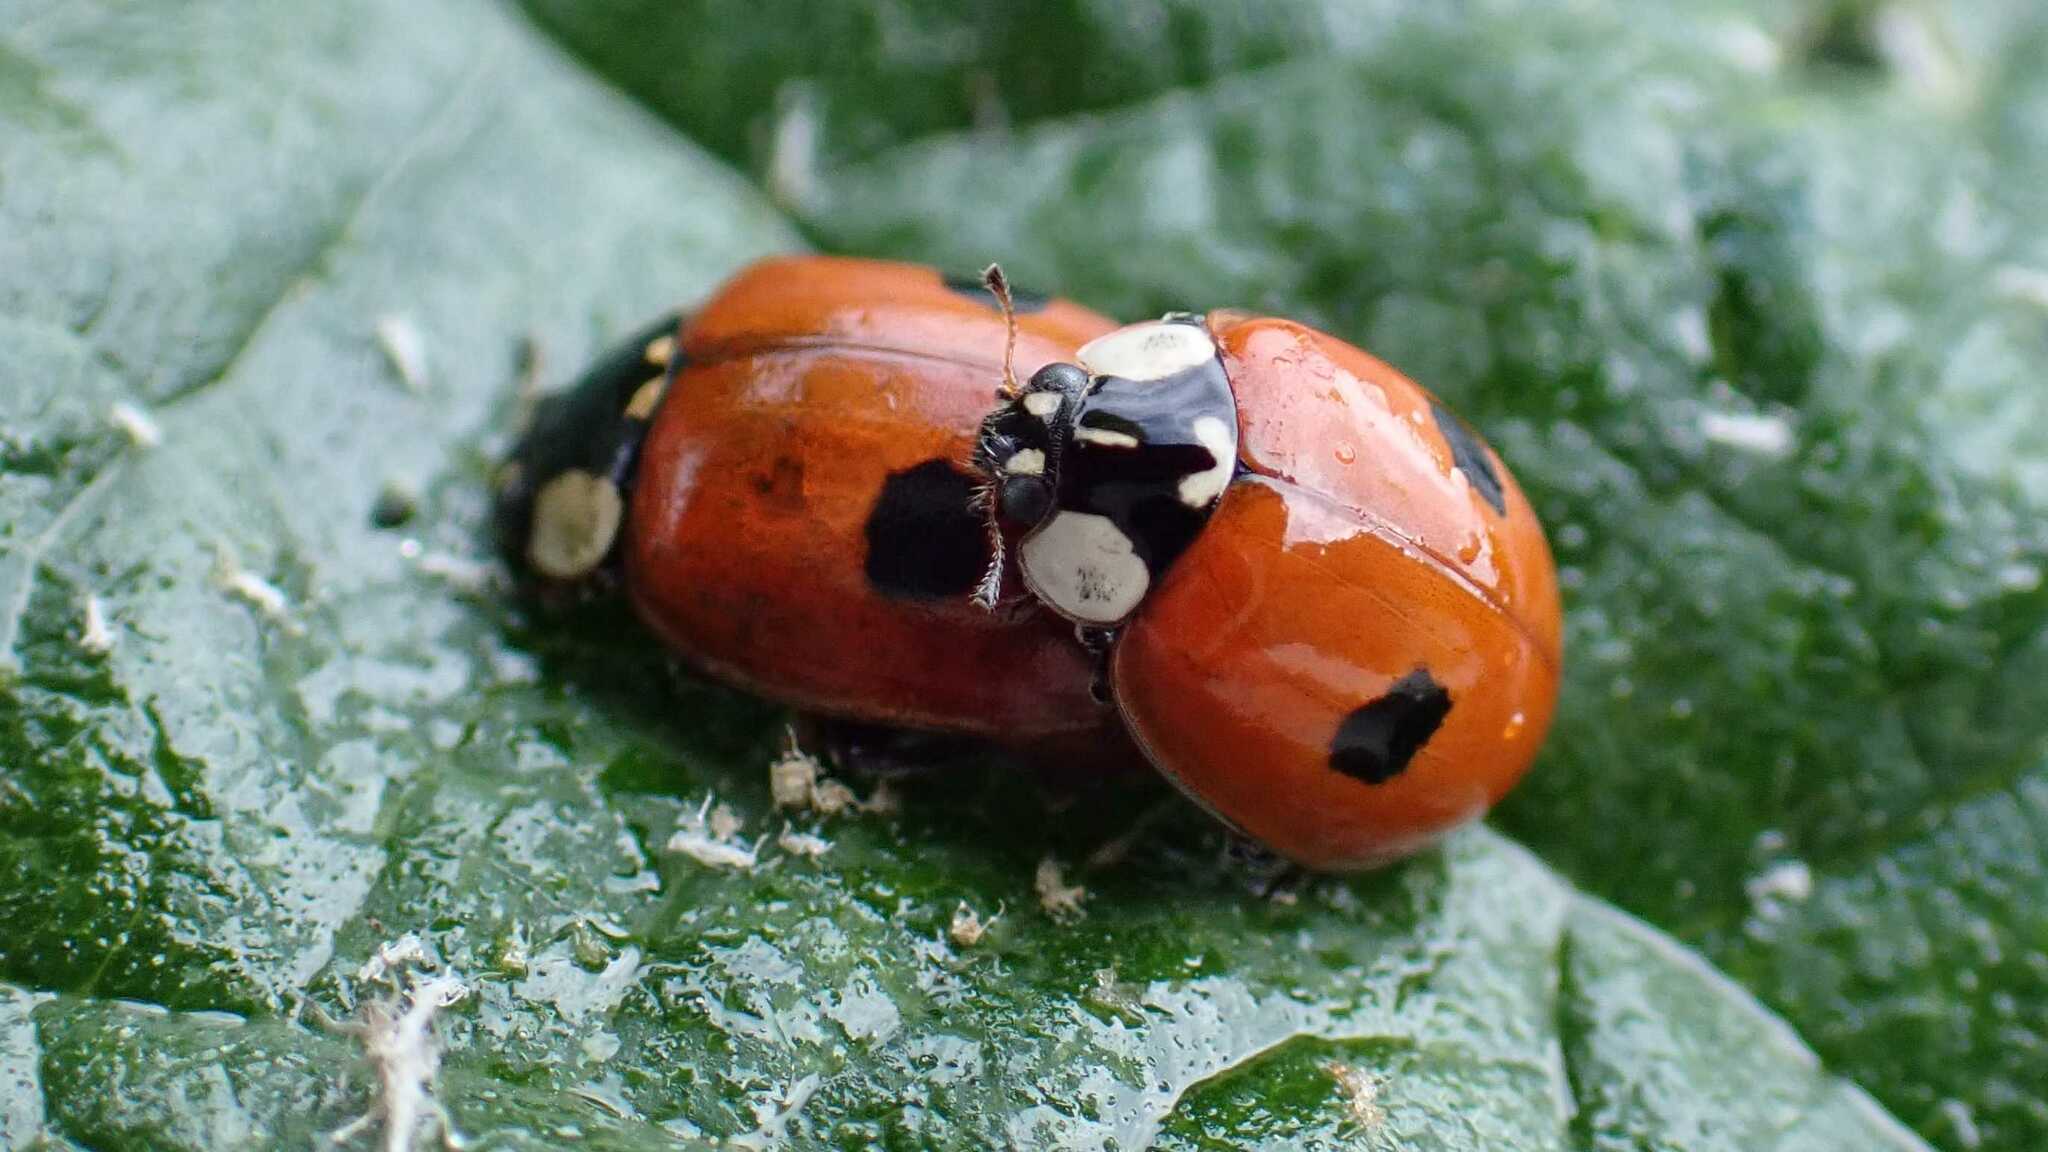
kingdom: Animalia
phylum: Arthropoda
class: Insecta
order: Coleoptera
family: Coccinellidae
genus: Adalia
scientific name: Adalia bipunctata
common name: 2-spot ladybird
